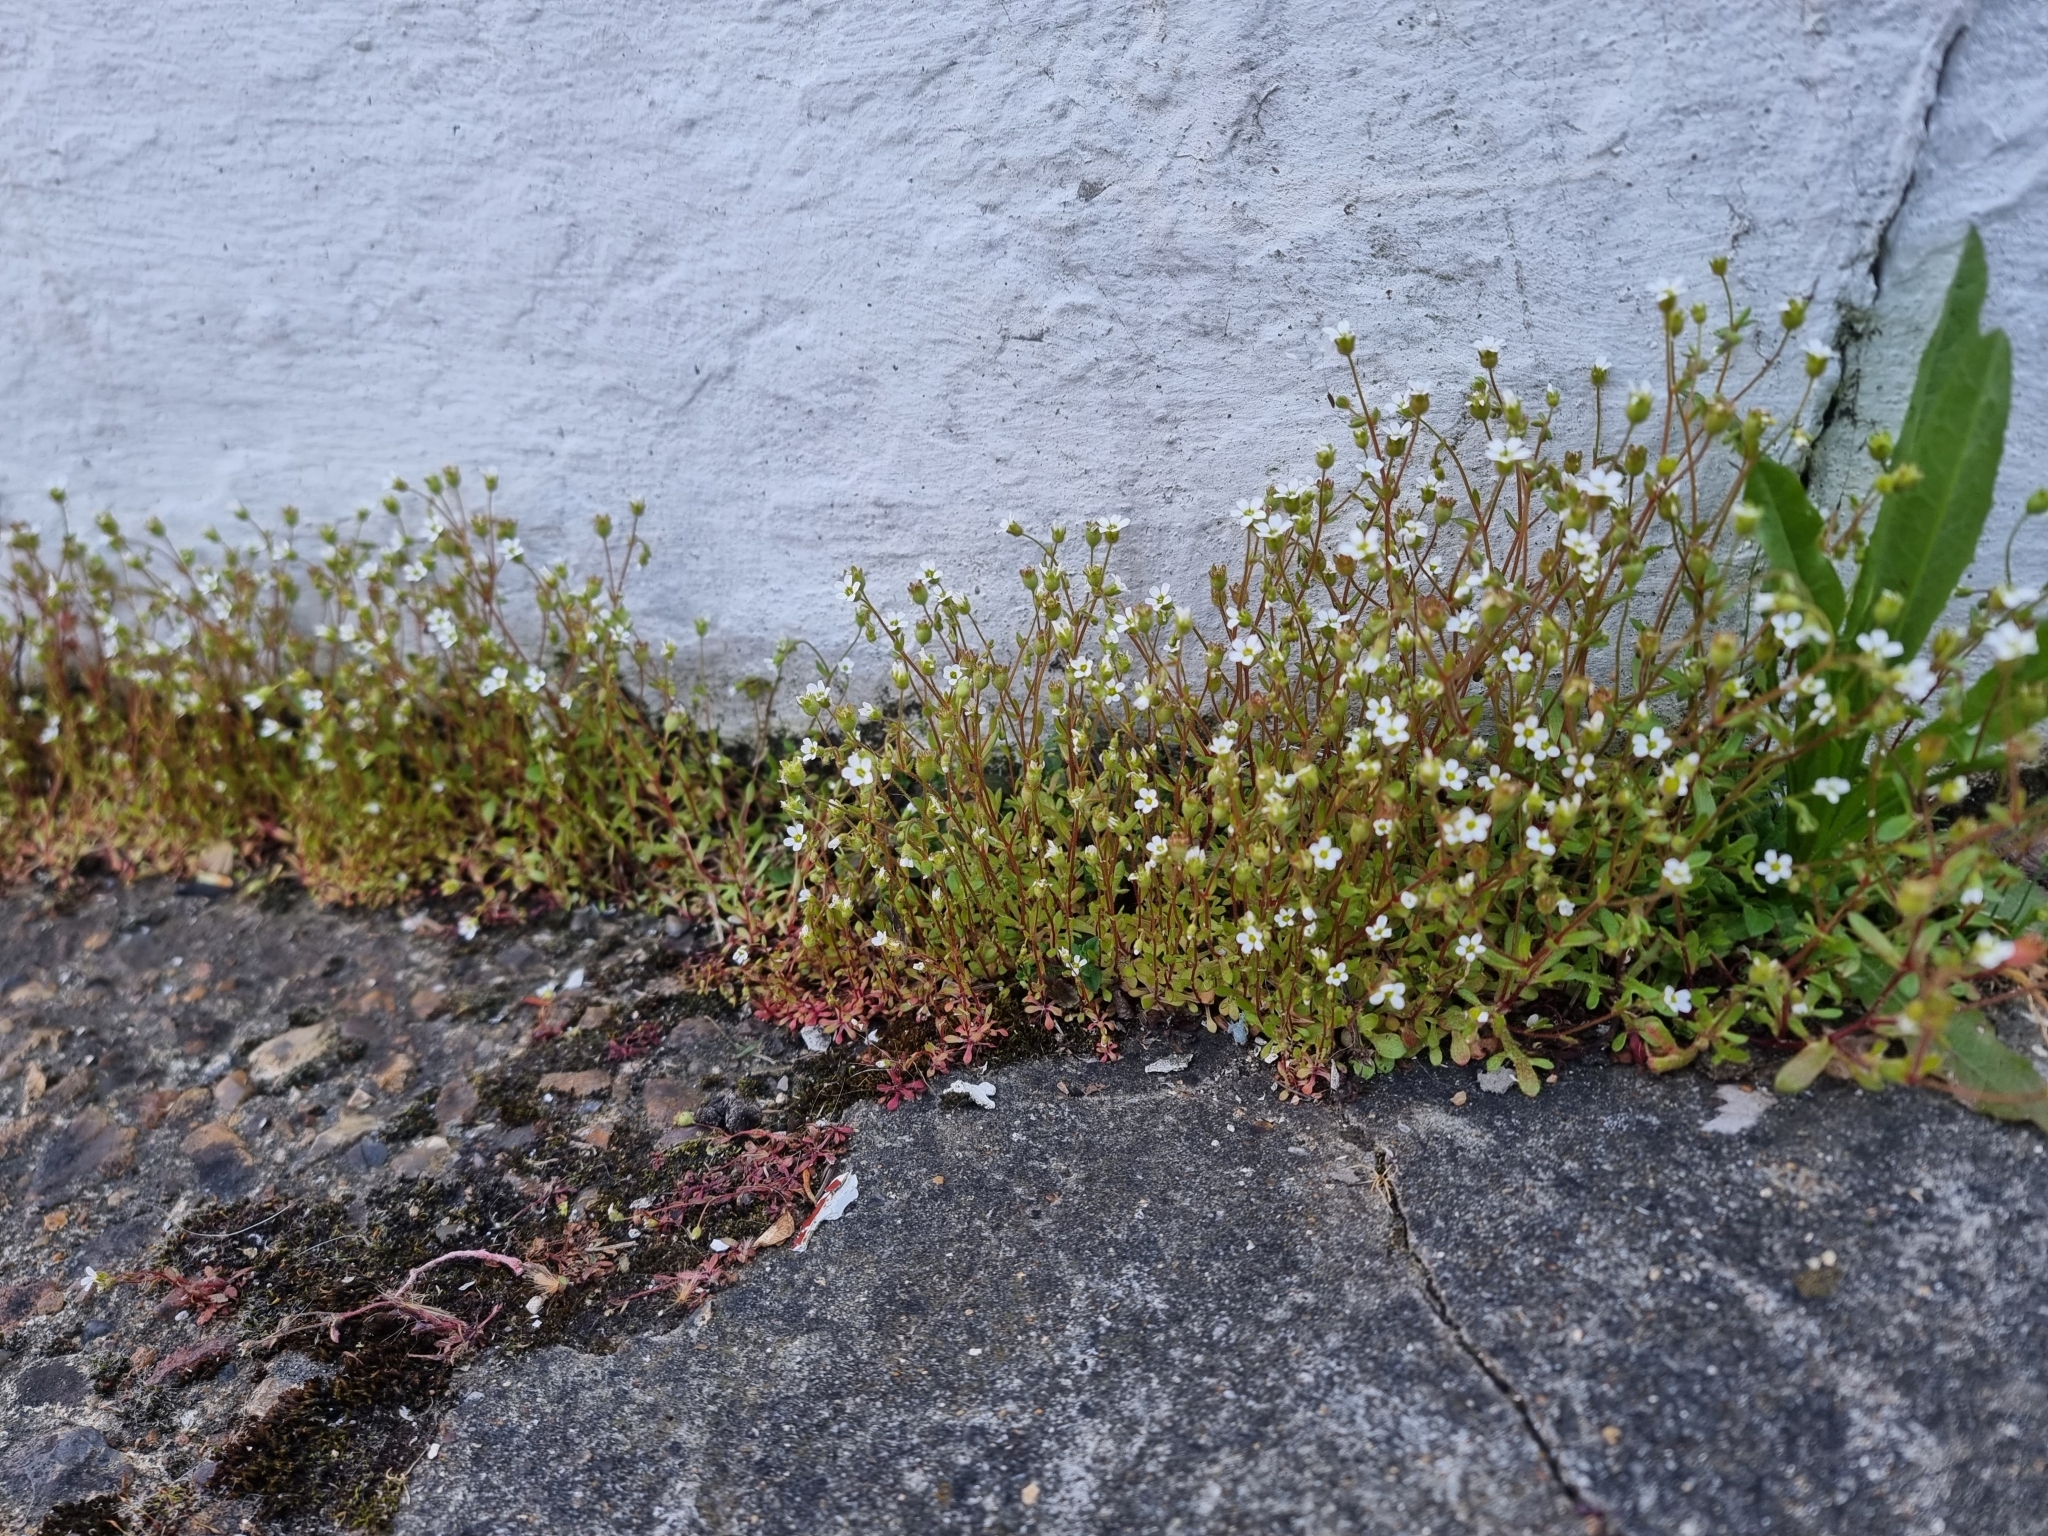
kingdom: Plantae
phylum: Tracheophyta
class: Magnoliopsida
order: Saxifragales
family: Saxifragaceae
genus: Saxifraga
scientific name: Saxifraga tridactylites
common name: Rue-leaved saxifrage
